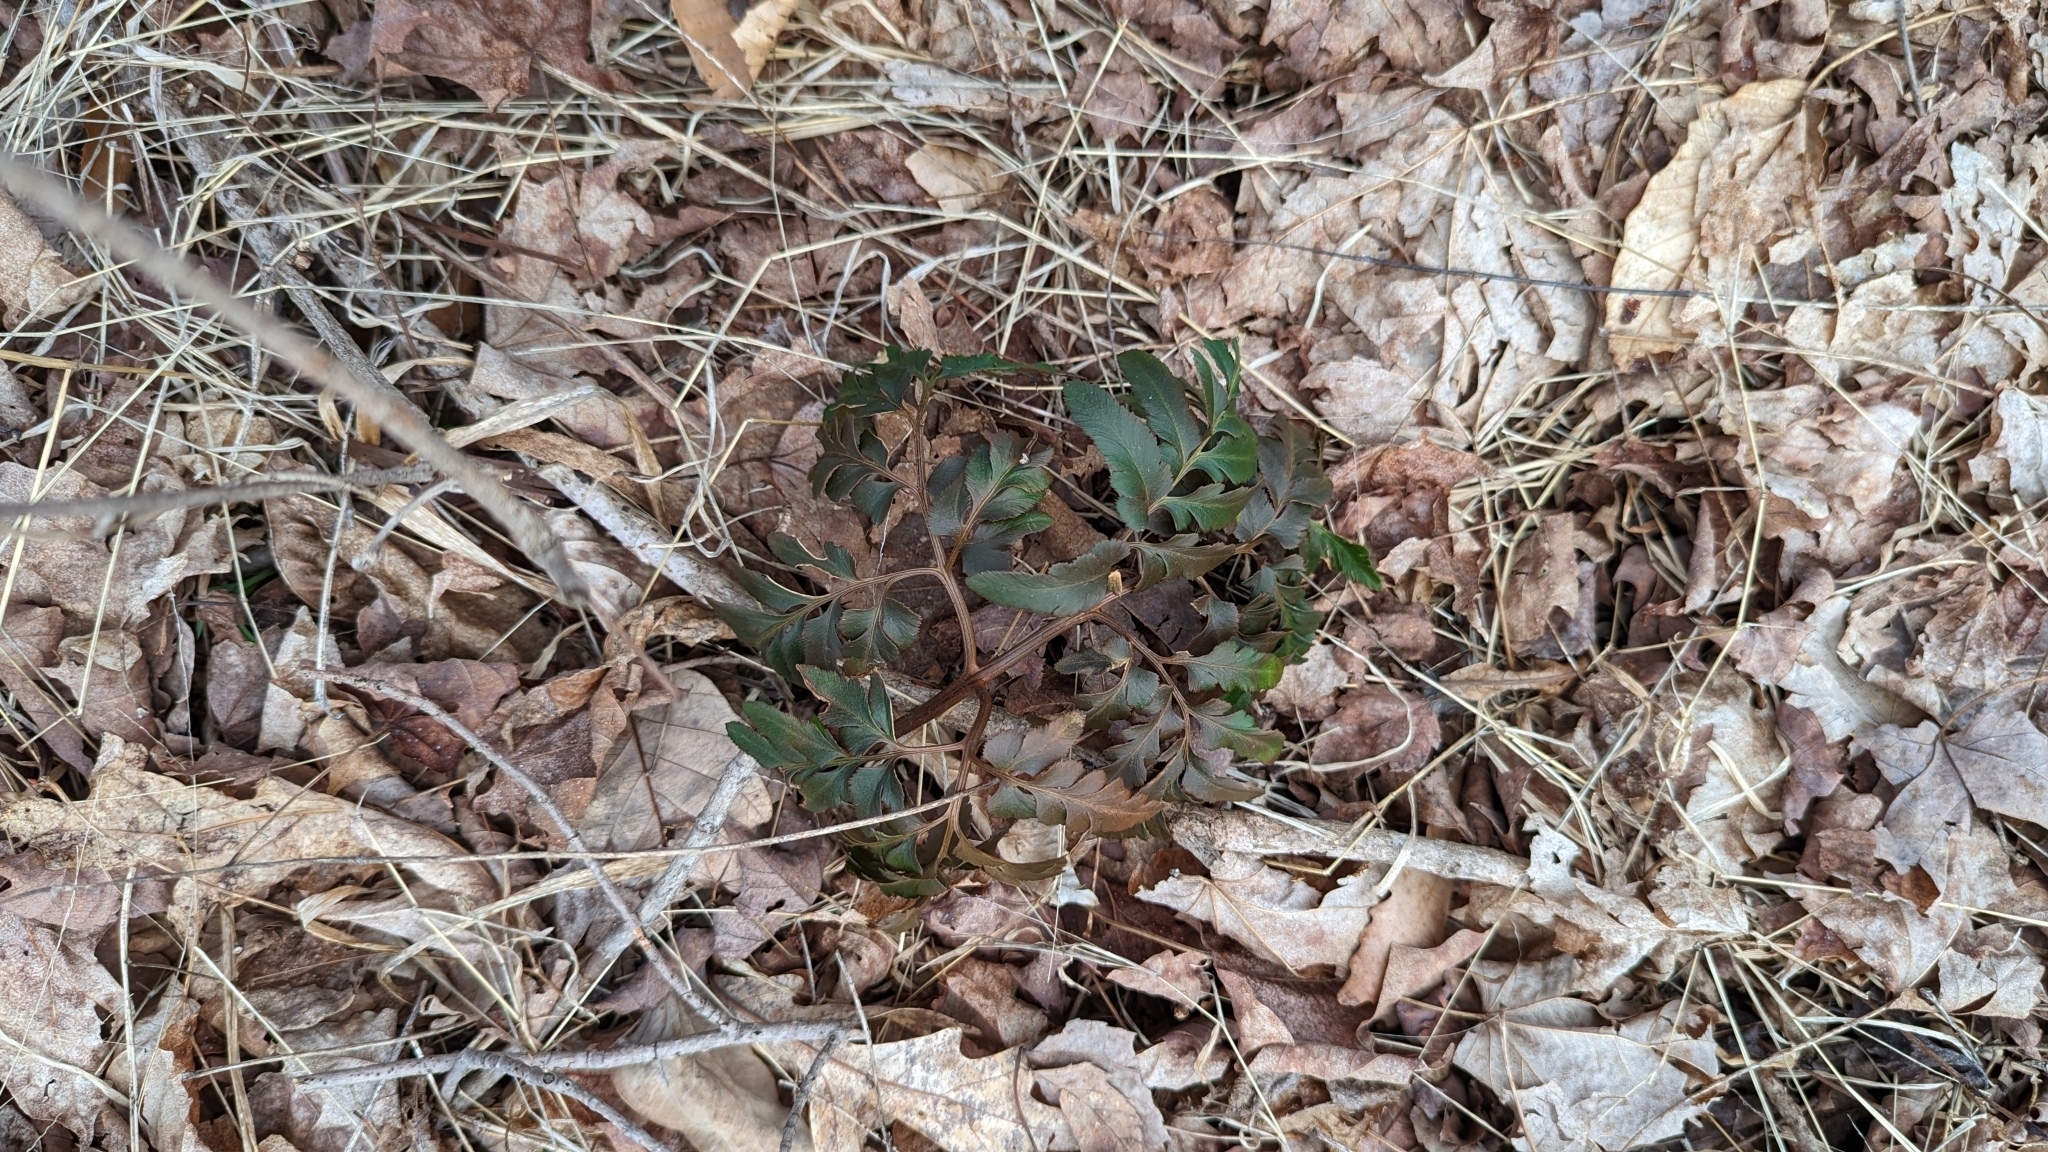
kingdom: Plantae
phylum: Tracheophyta
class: Polypodiopsida
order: Ophioglossales
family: Ophioglossaceae
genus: Sceptridium
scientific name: Sceptridium dissectum
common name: Cut-leaved grapefern
